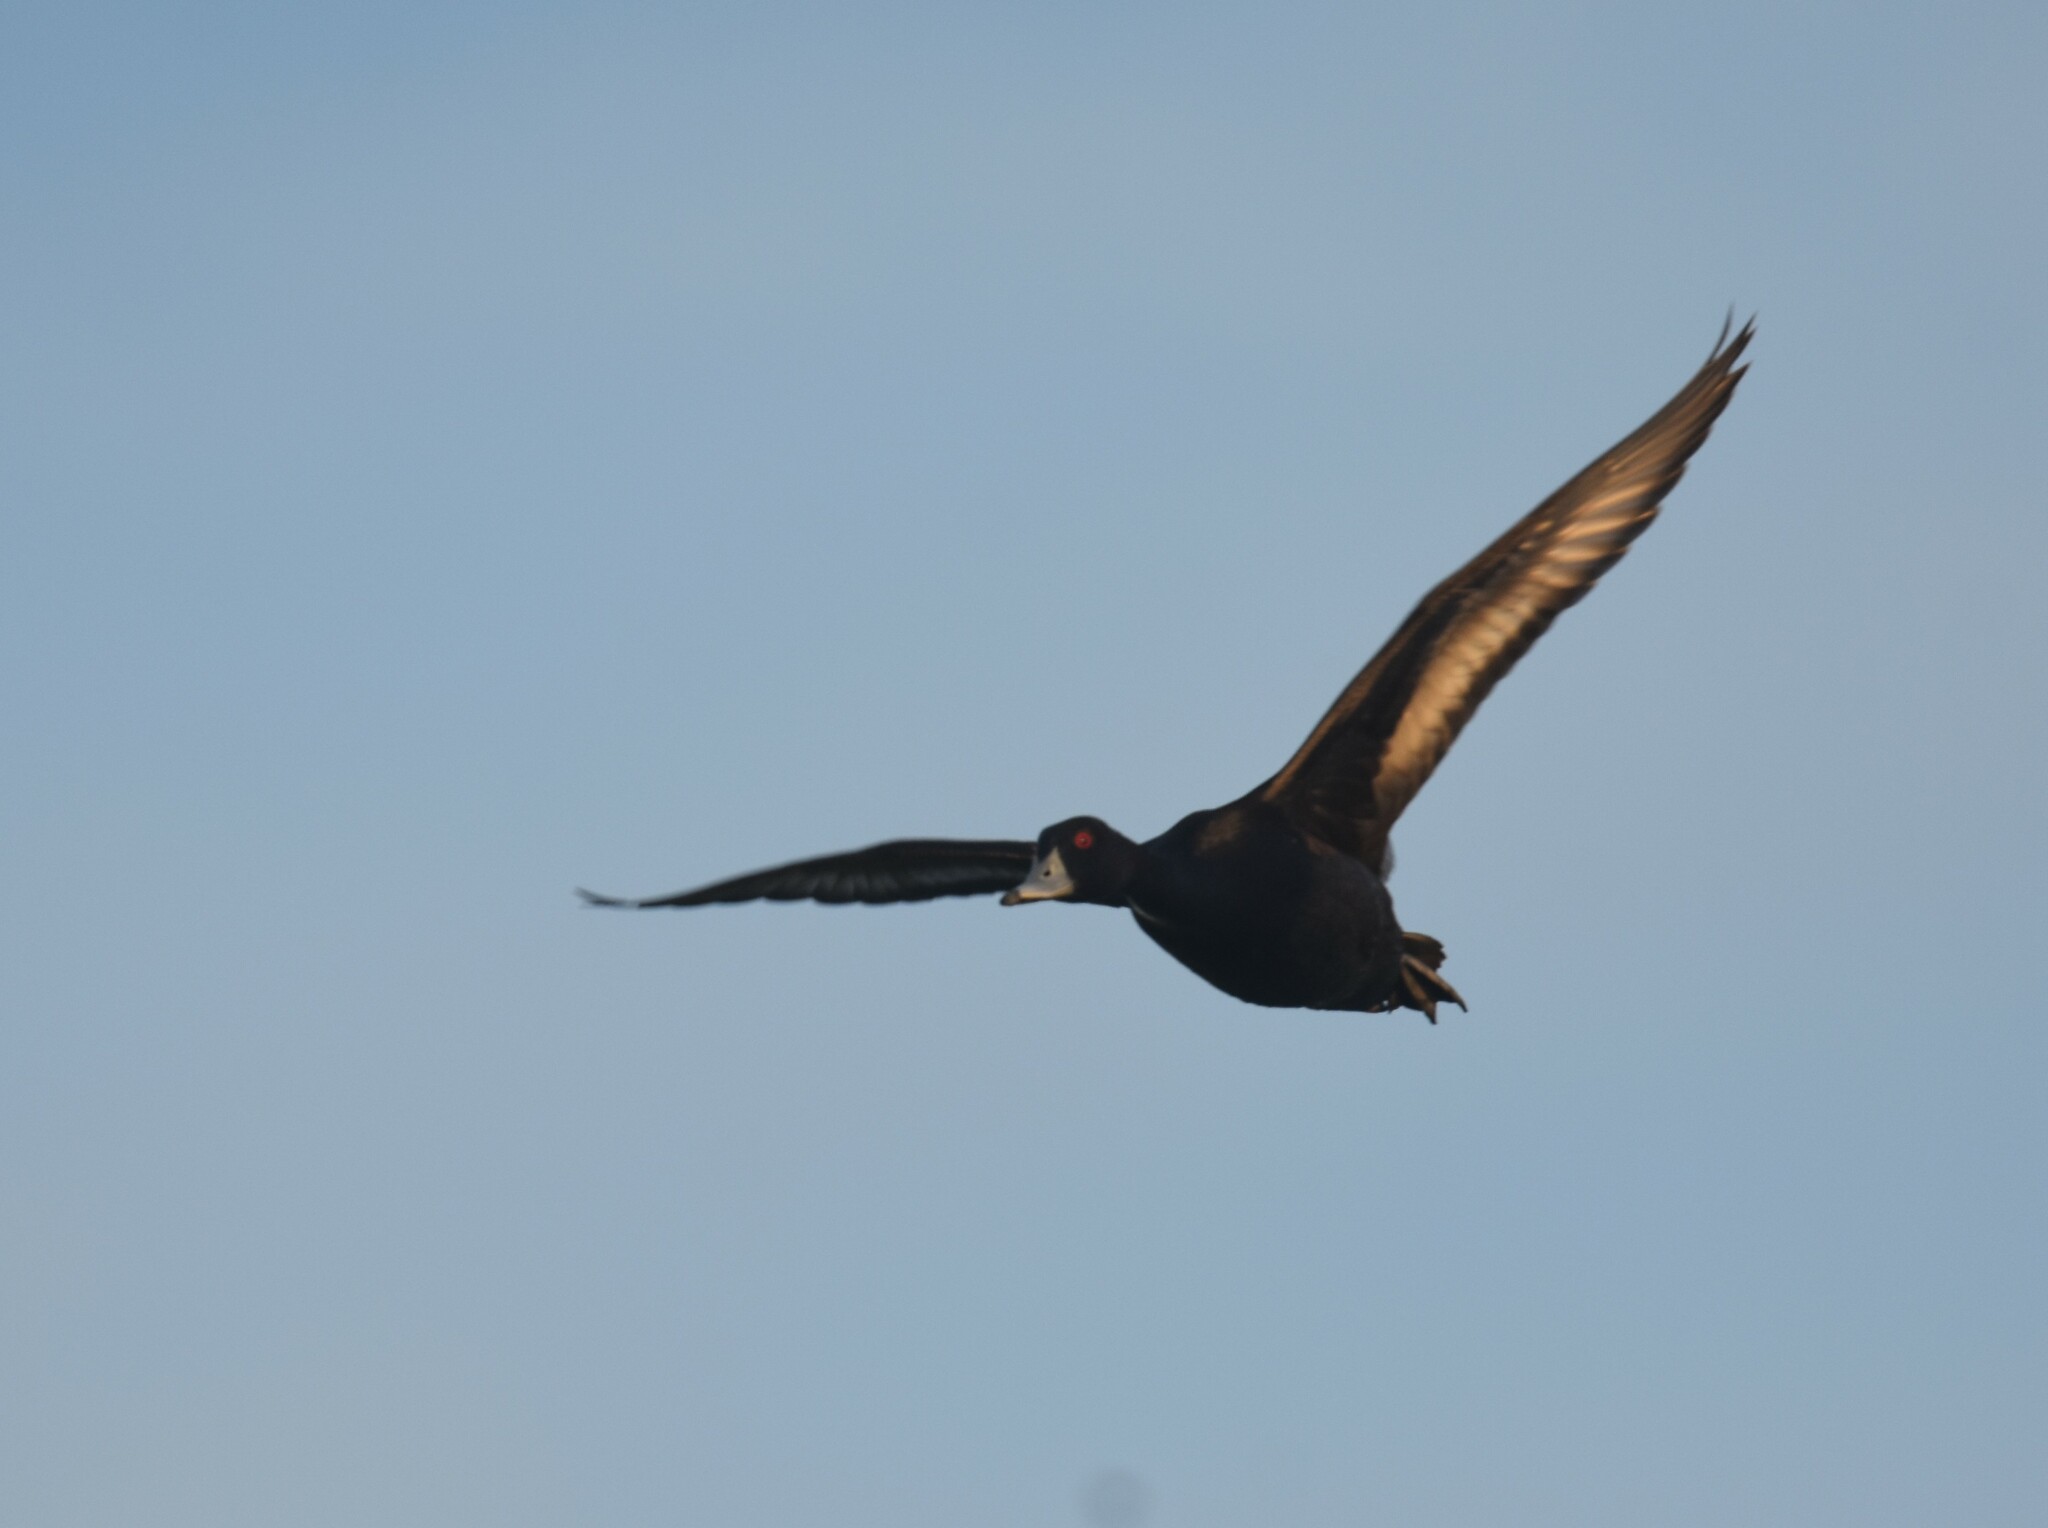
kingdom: Animalia
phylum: Chordata
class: Aves
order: Anseriformes
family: Anatidae
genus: Netta
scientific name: Netta erythrophthalma
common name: Southern pochard
